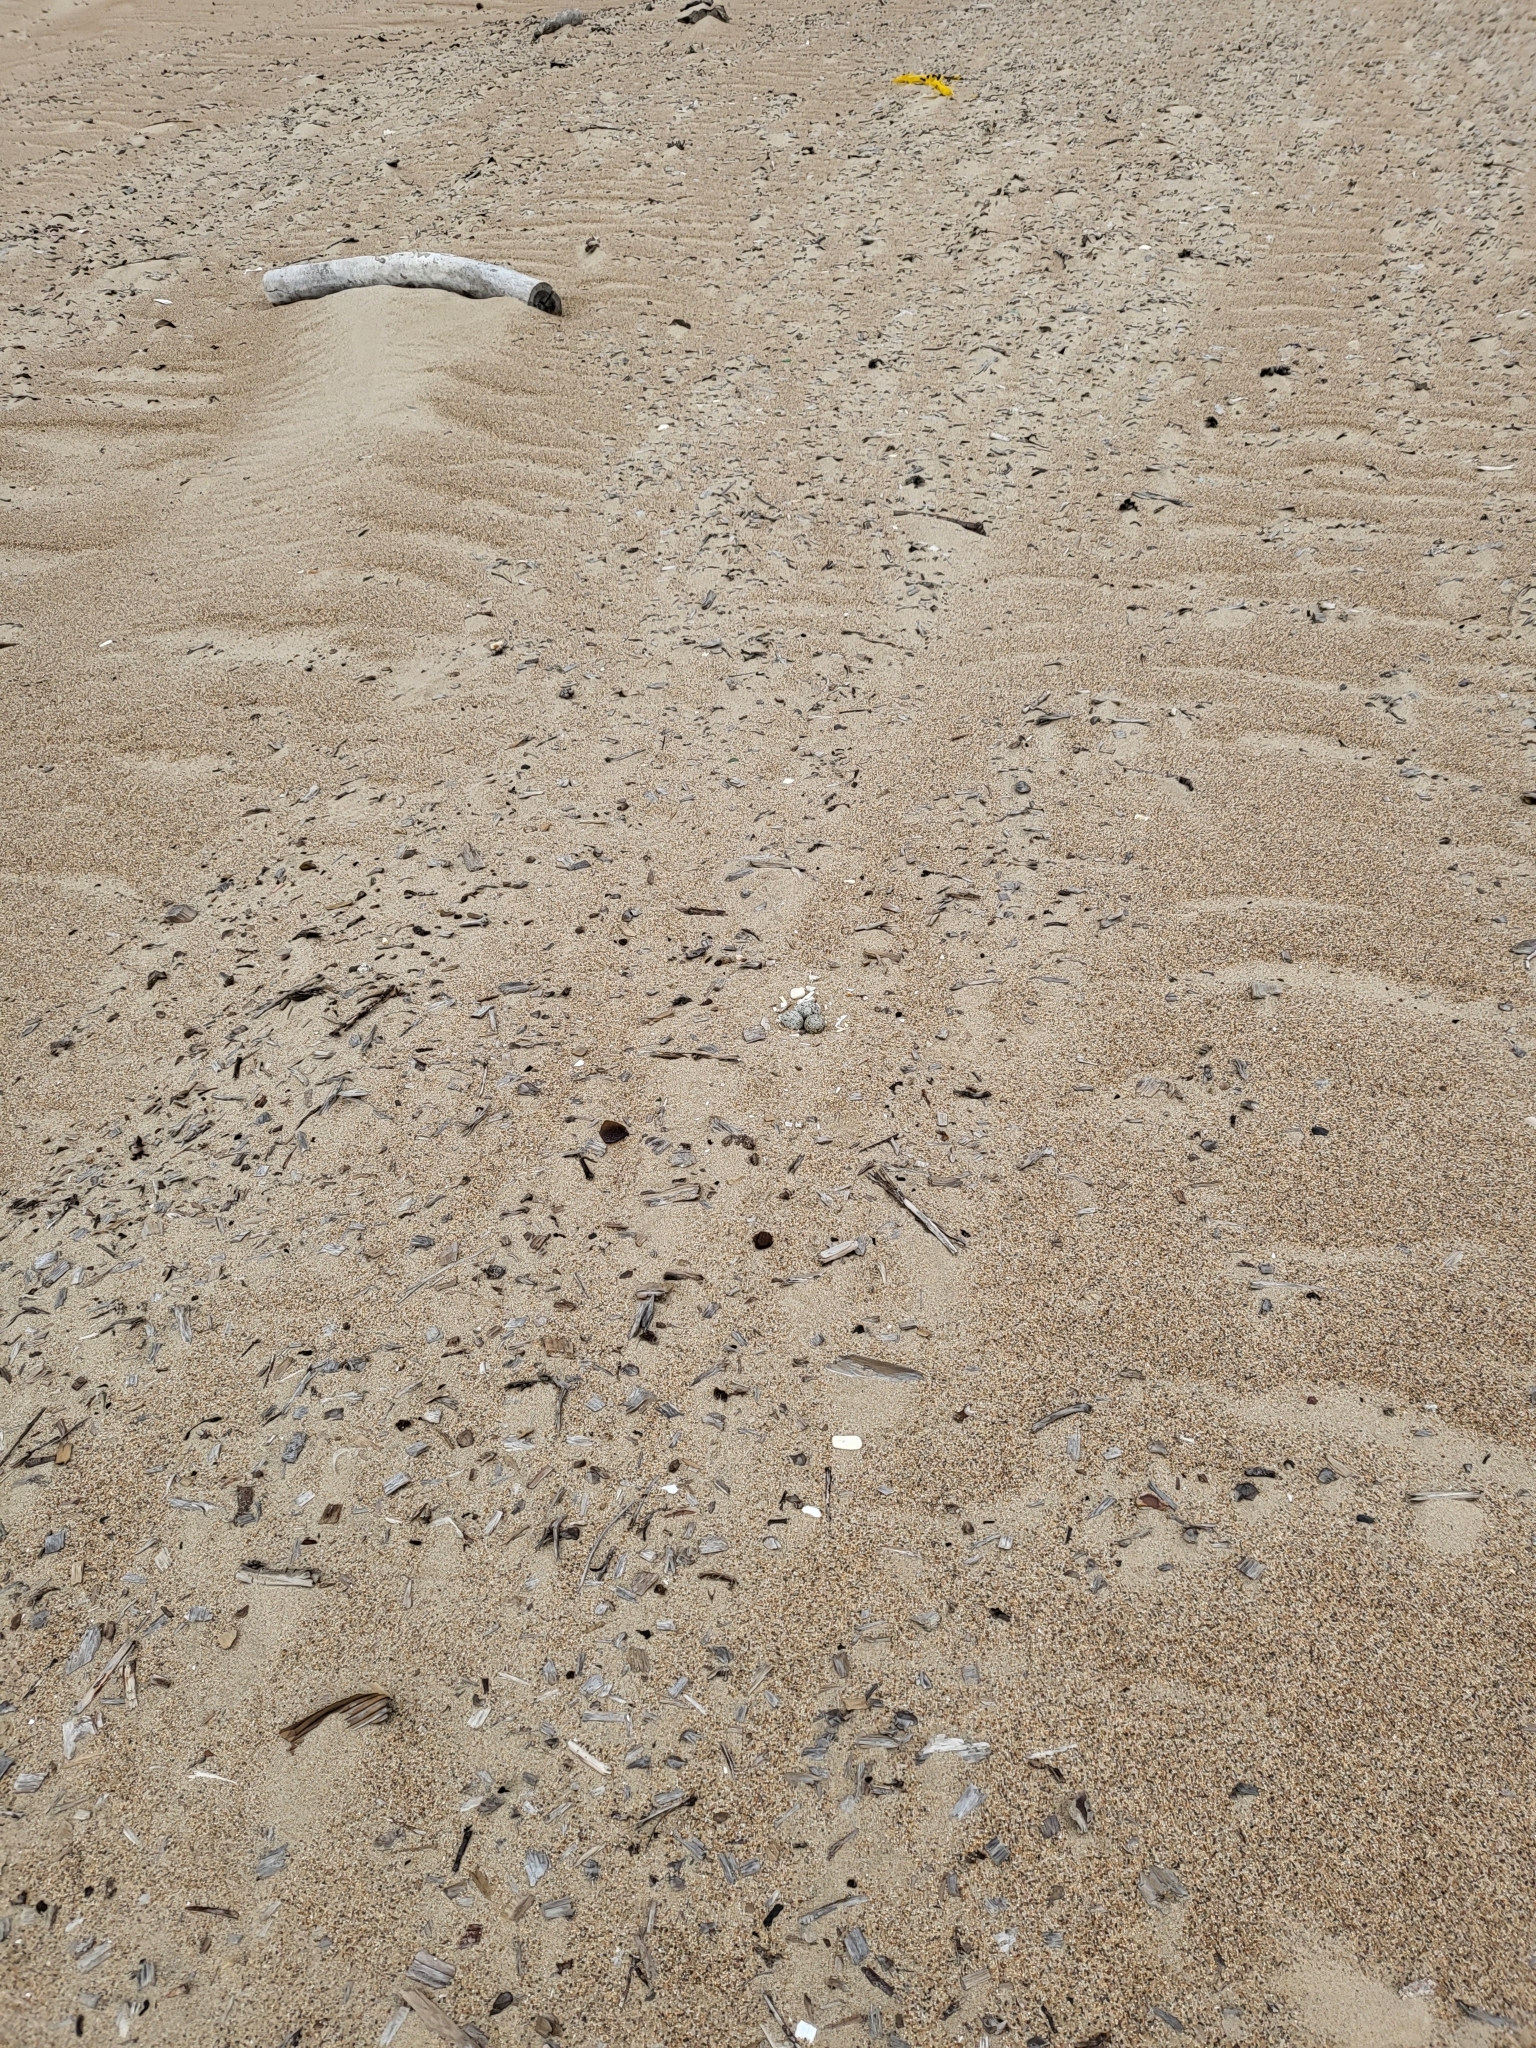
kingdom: Animalia
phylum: Chordata
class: Aves
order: Charadriiformes
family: Charadriidae
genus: Anarhynchus
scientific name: Anarhynchus
